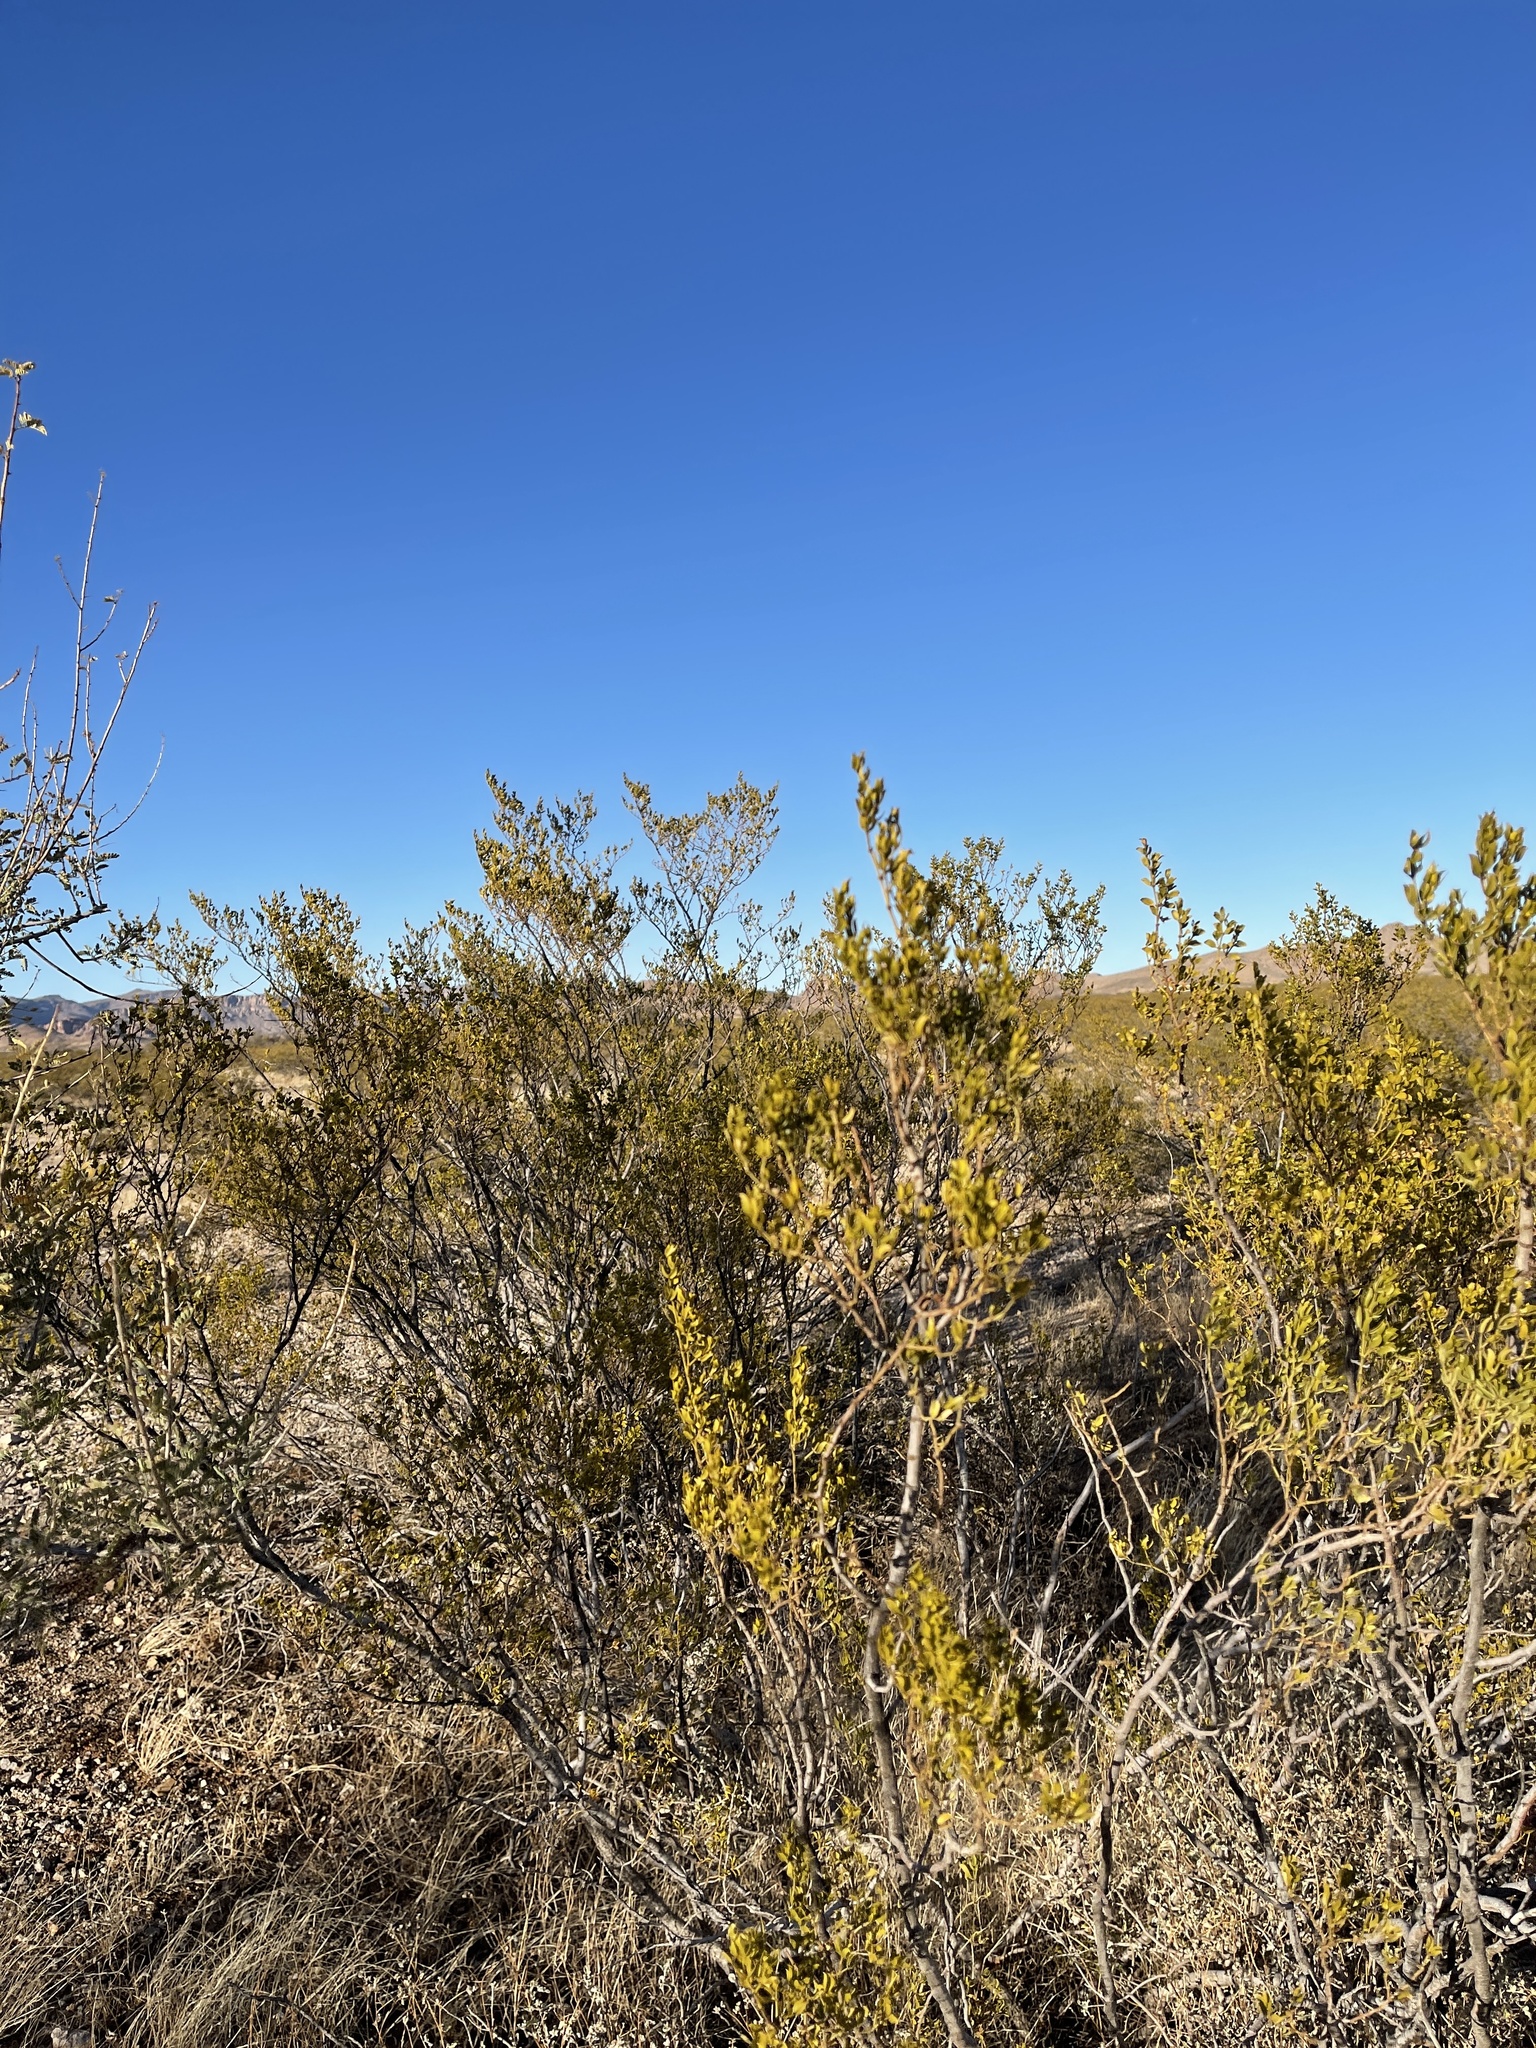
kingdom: Plantae
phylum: Tracheophyta
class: Magnoliopsida
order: Zygophyllales
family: Zygophyllaceae
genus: Larrea
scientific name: Larrea tridentata
